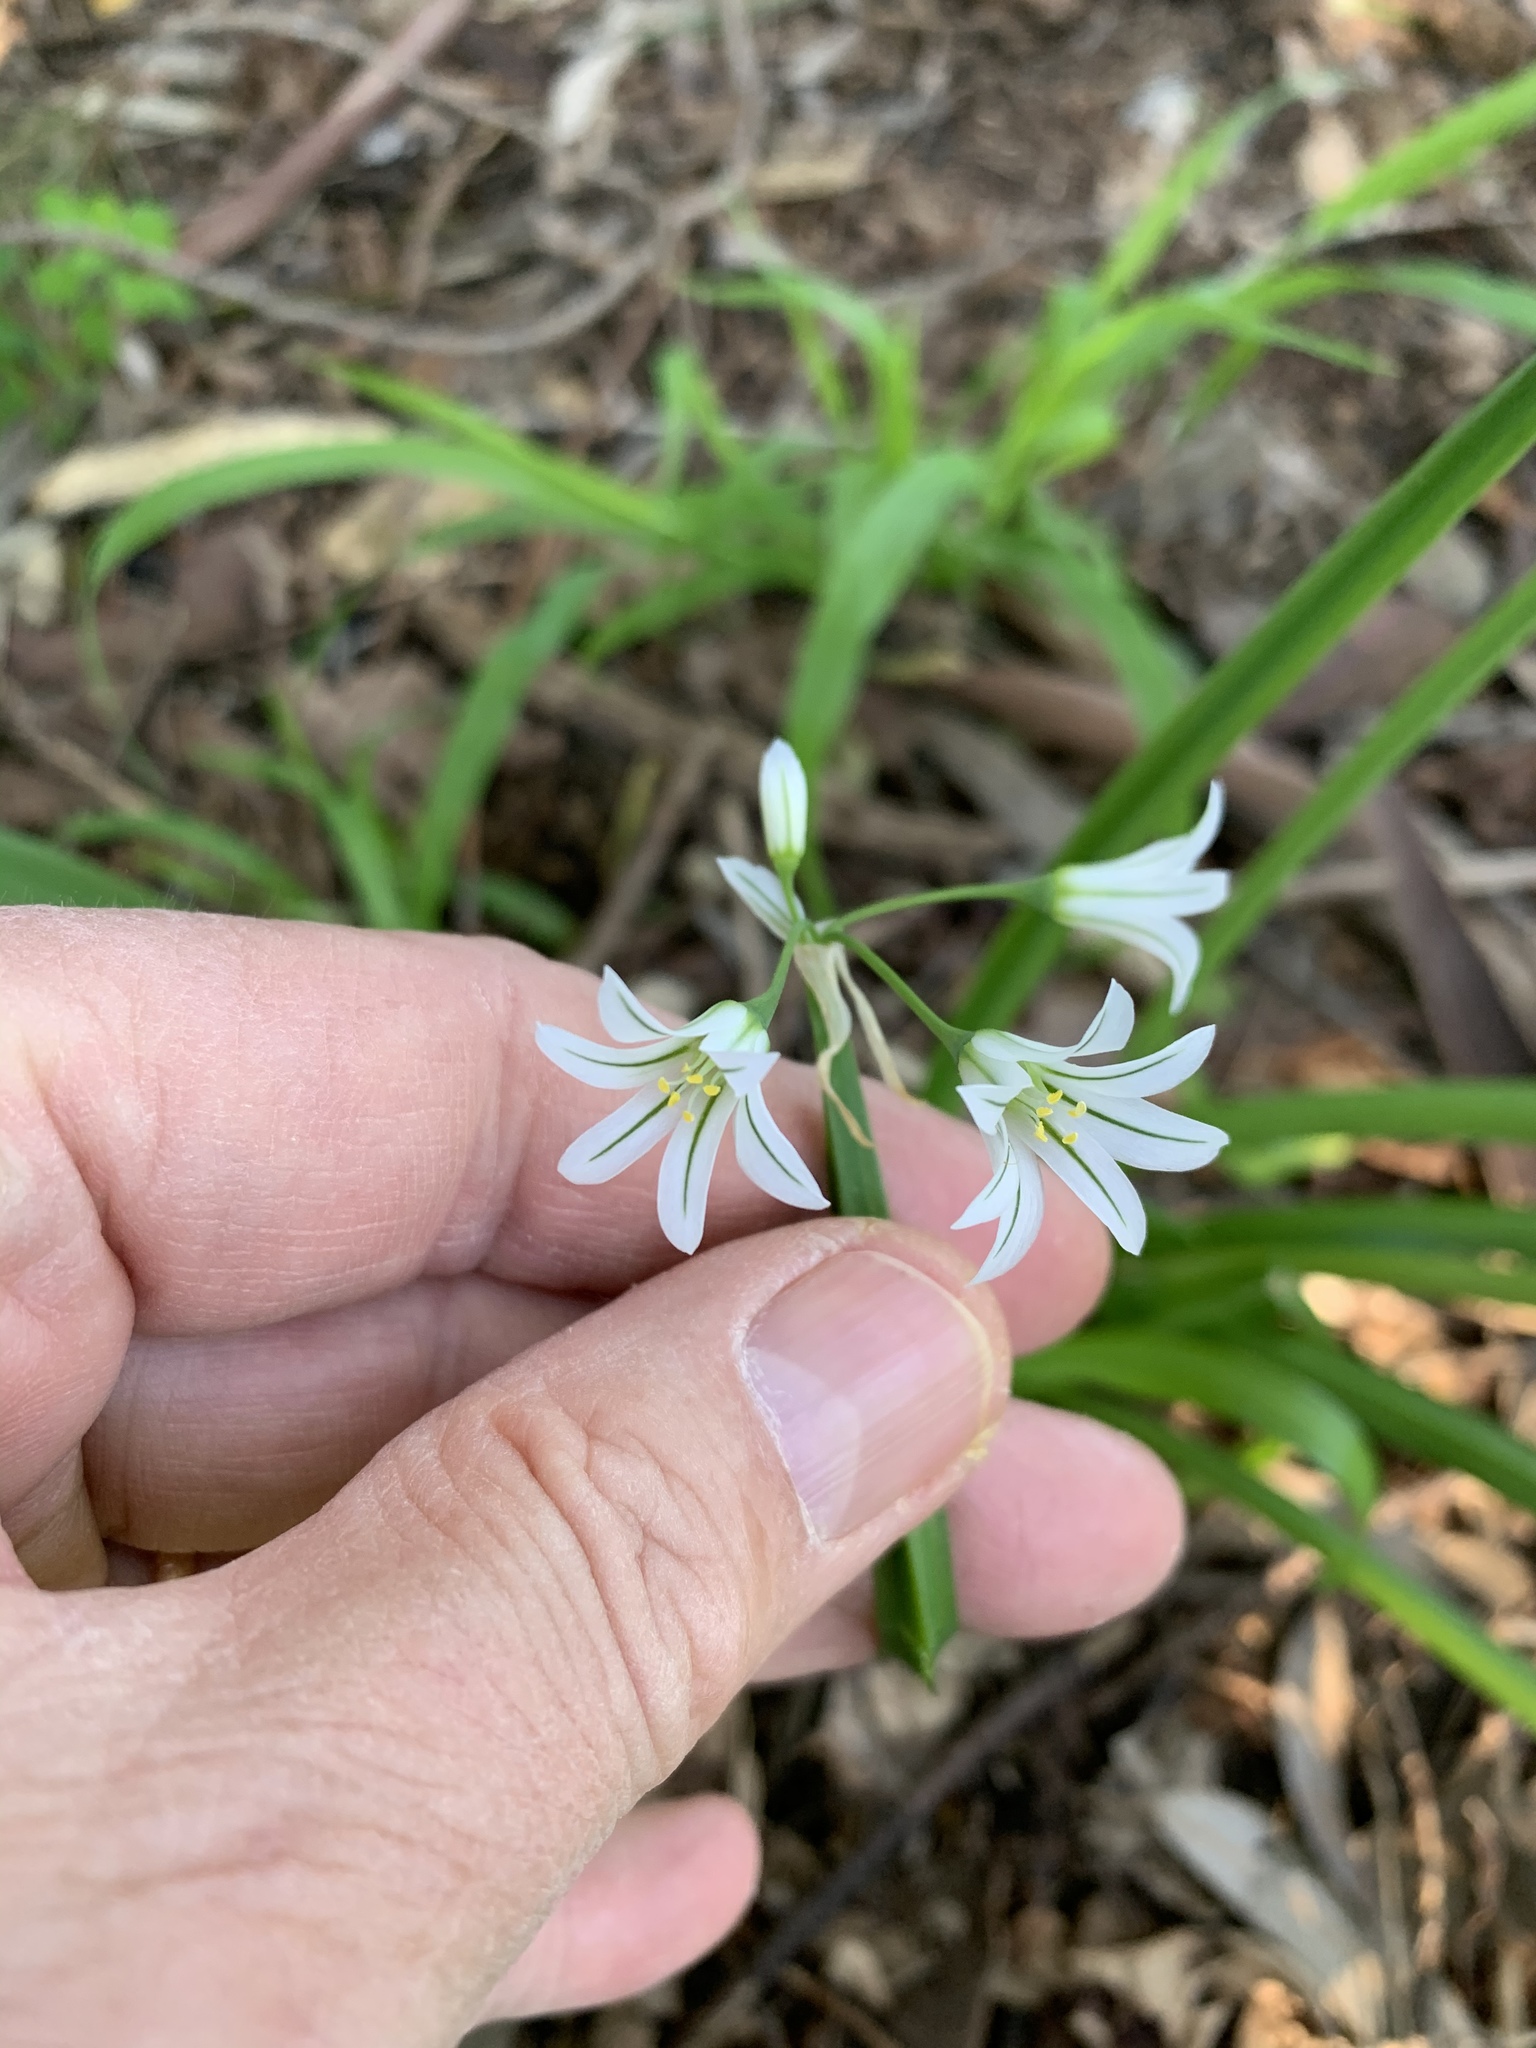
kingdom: Plantae
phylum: Tracheophyta
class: Liliopsida
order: Asparagales
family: Amaryllidaceae
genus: Allium
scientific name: Allium triquetrum
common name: Three-cornered garlic
